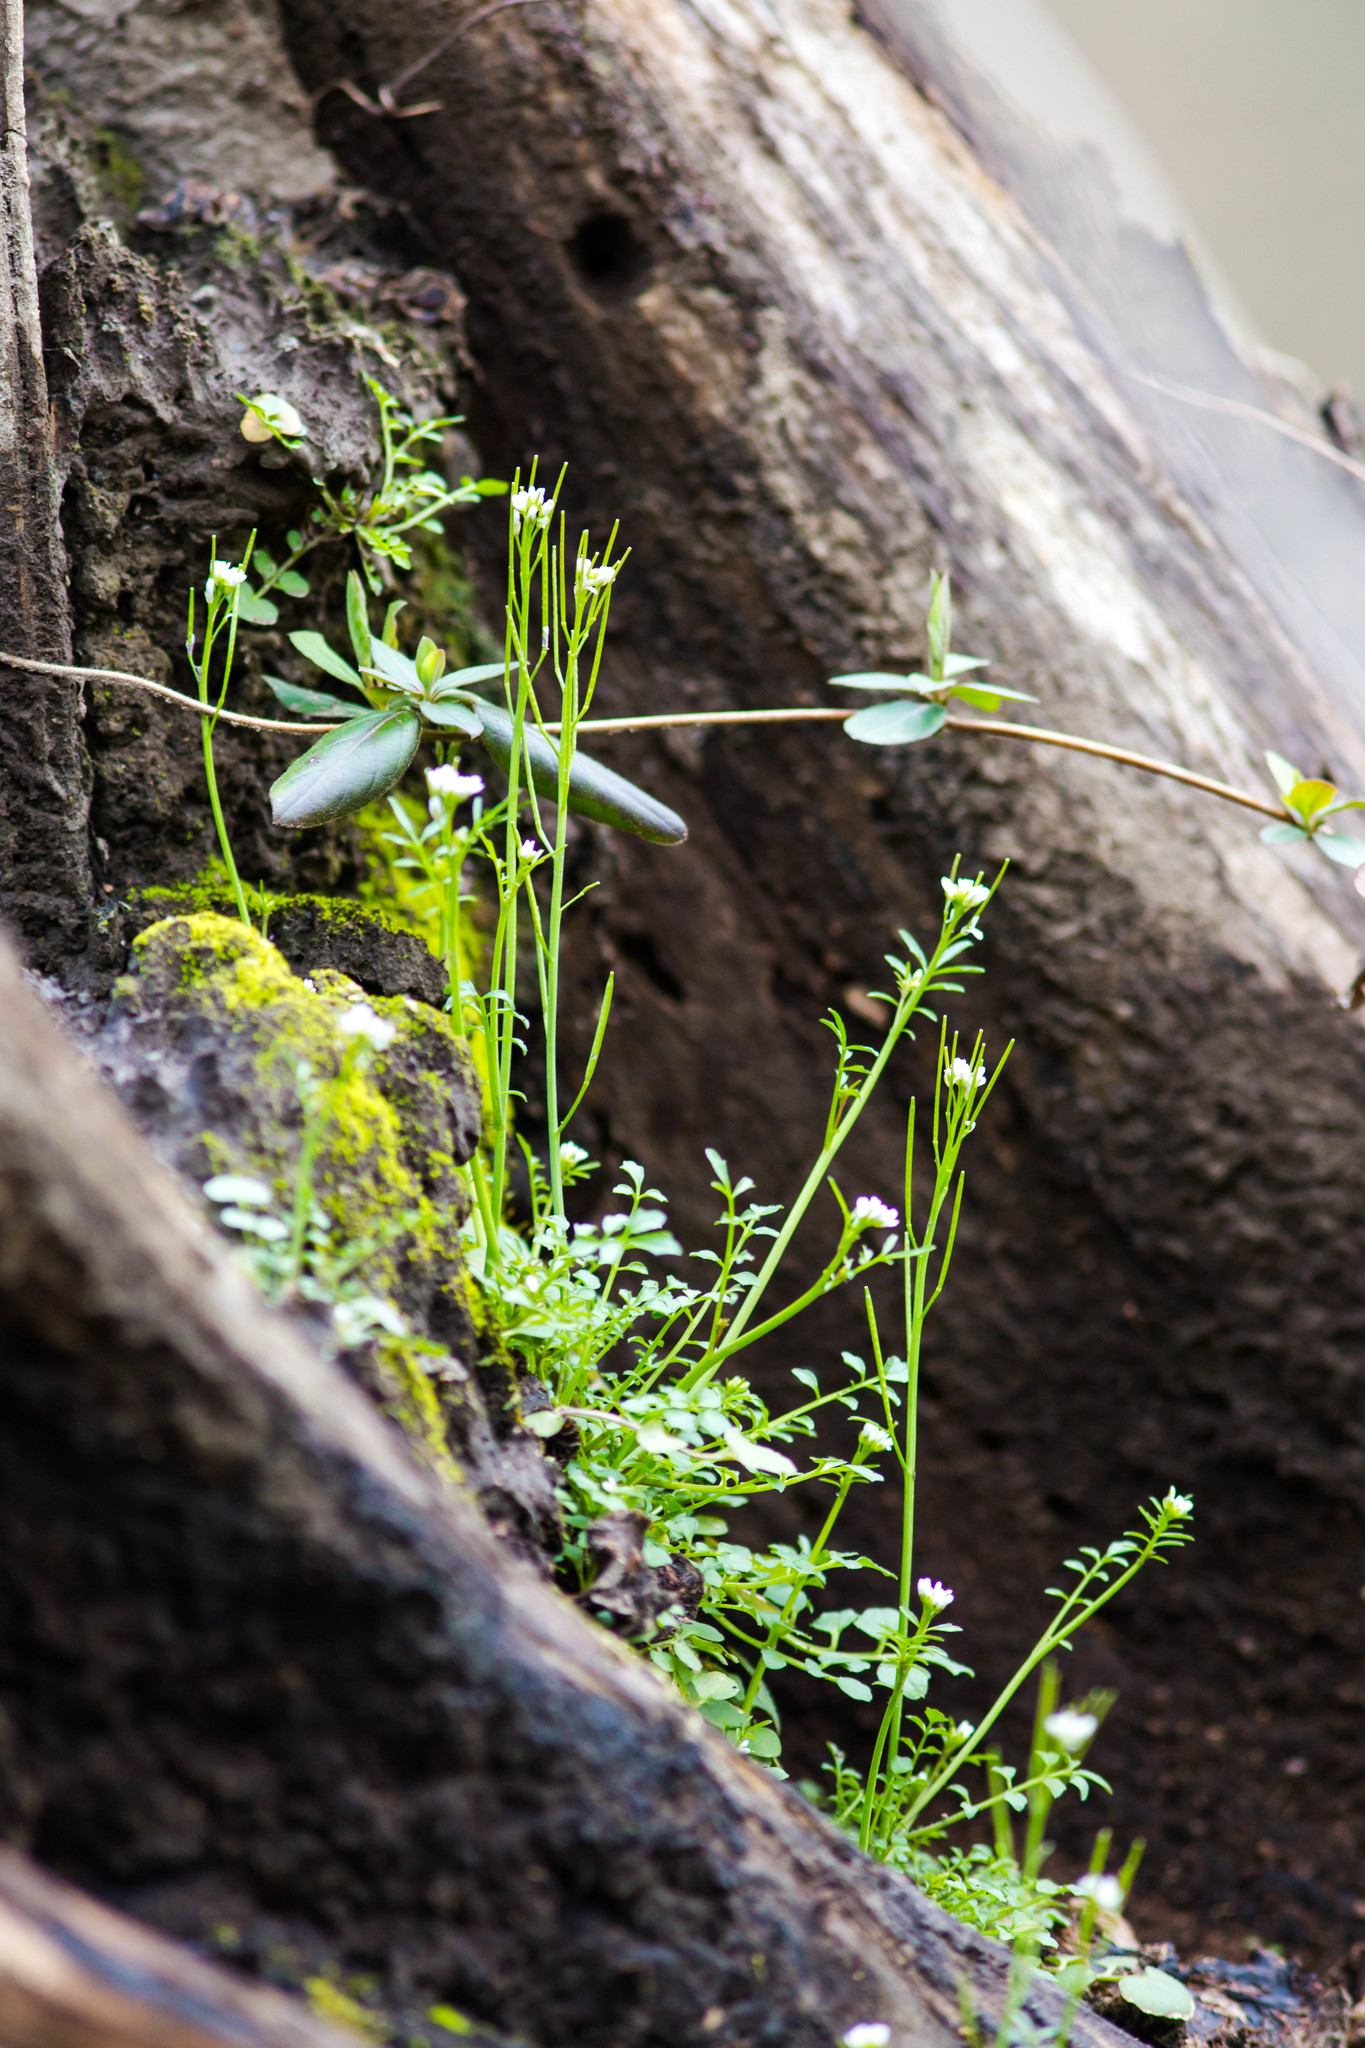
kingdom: Plantae
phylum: Tracheophyta
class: Magnoliopsida
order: Brassicales
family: Brassicaceae
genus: Cardamine
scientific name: Cardamine hirsuta
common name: Hairy bittercress
